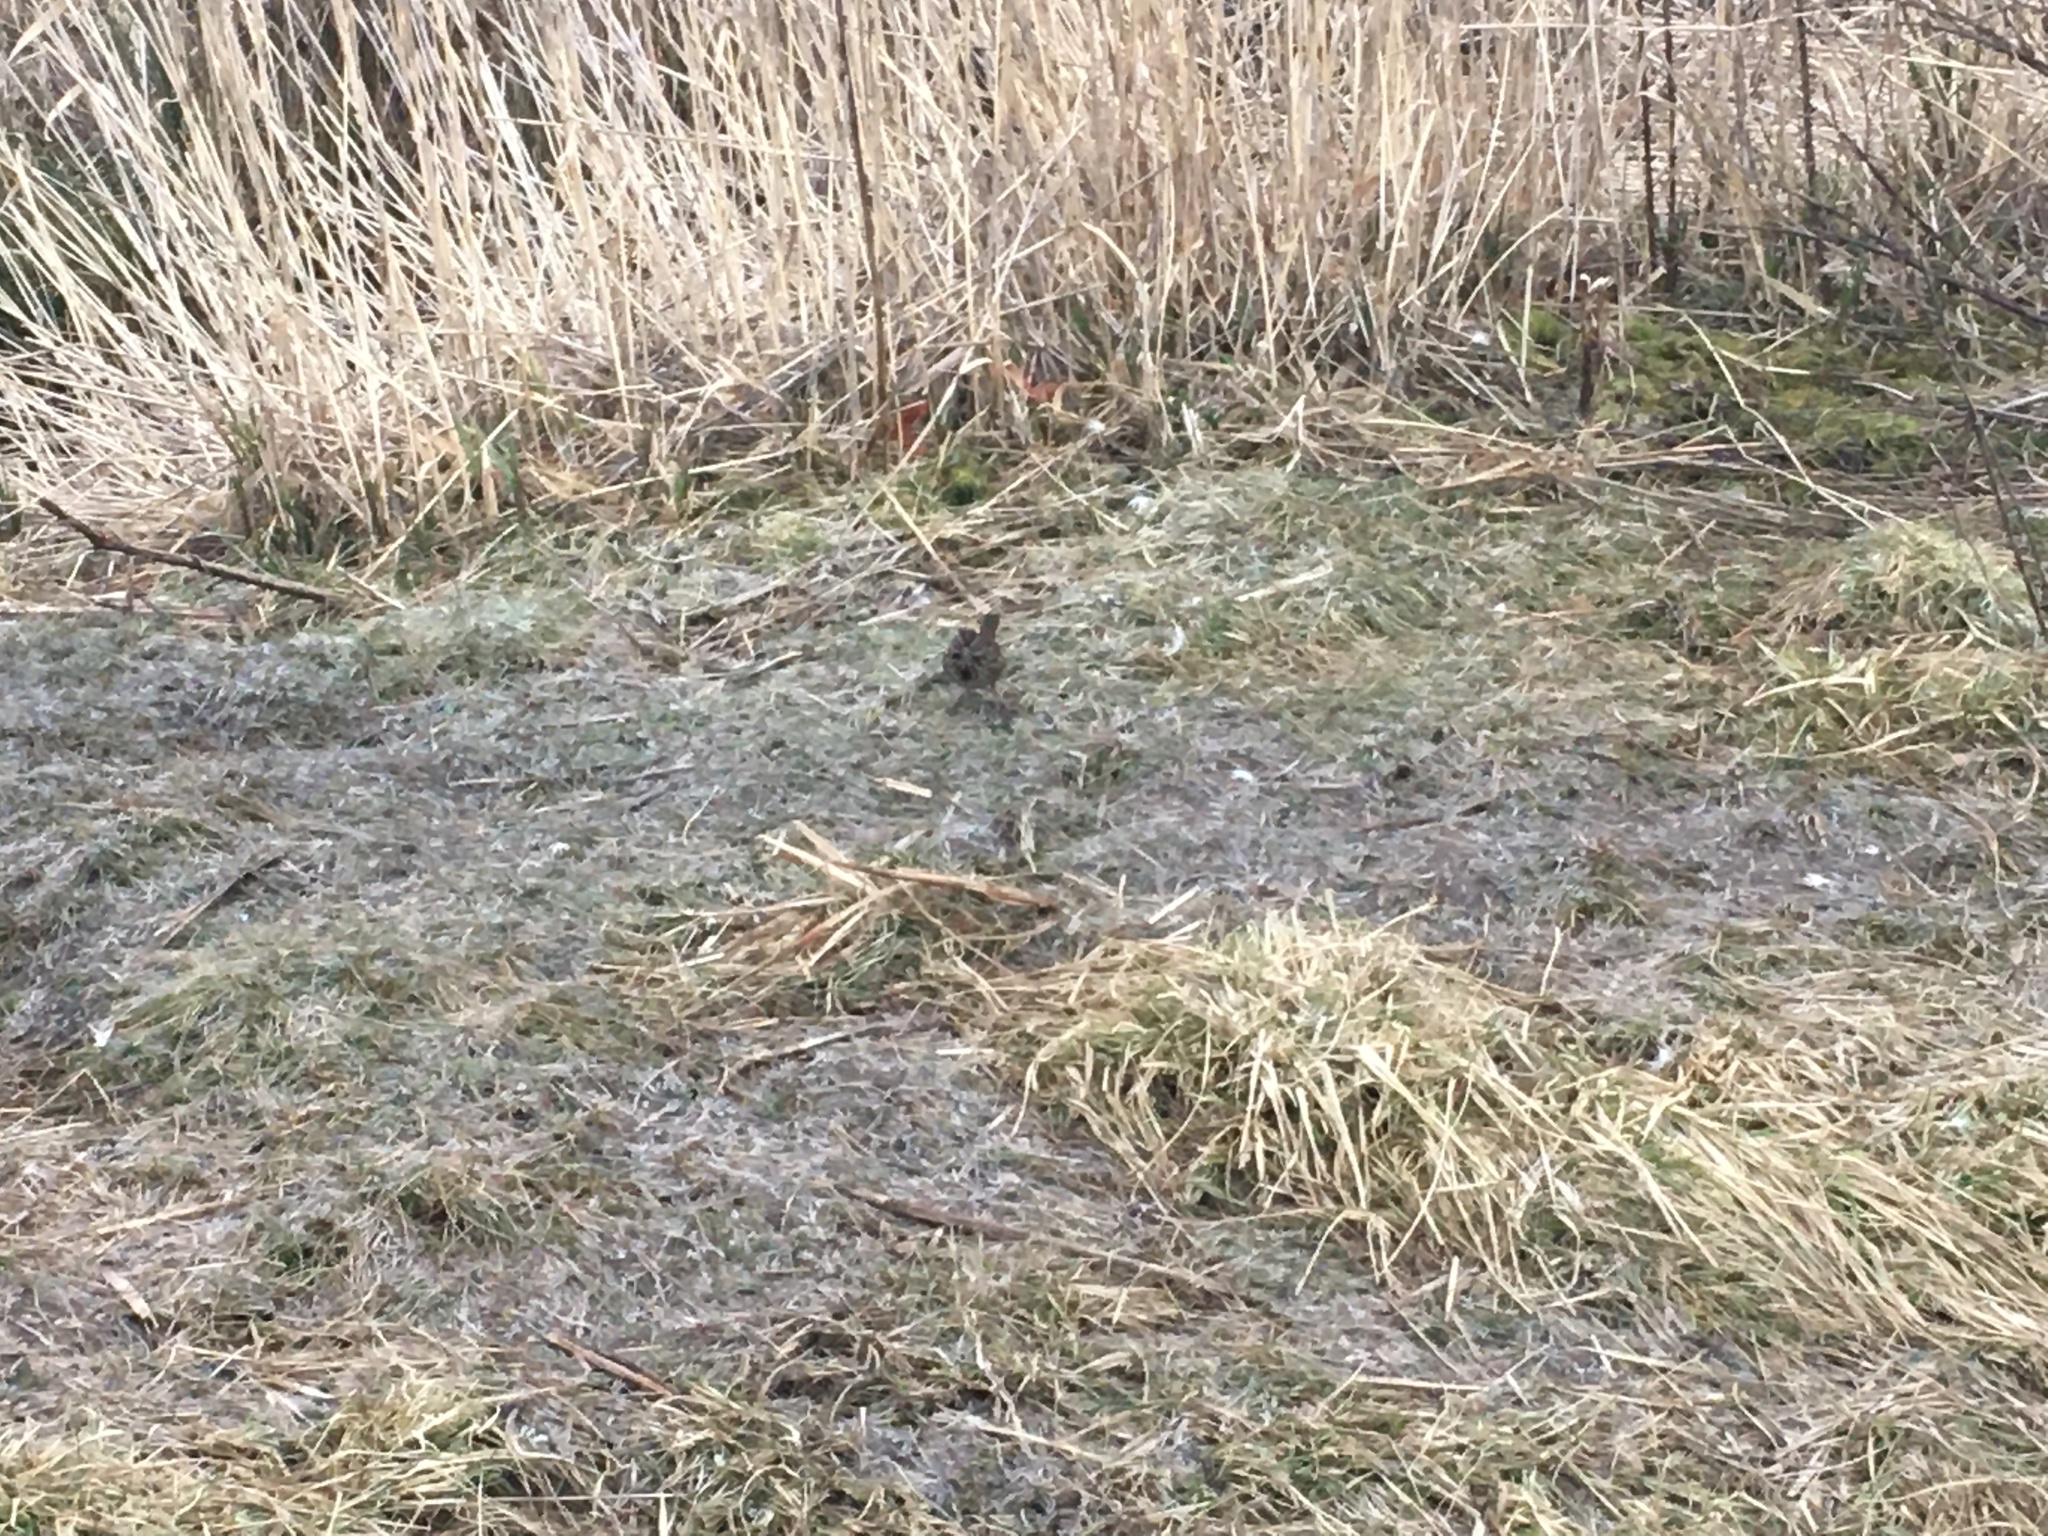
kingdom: Animalia
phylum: Chordata
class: Aves
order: Passeriformes
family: Passerellidae
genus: Melospiza
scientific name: Melospiza melodia
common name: Song sparrow
